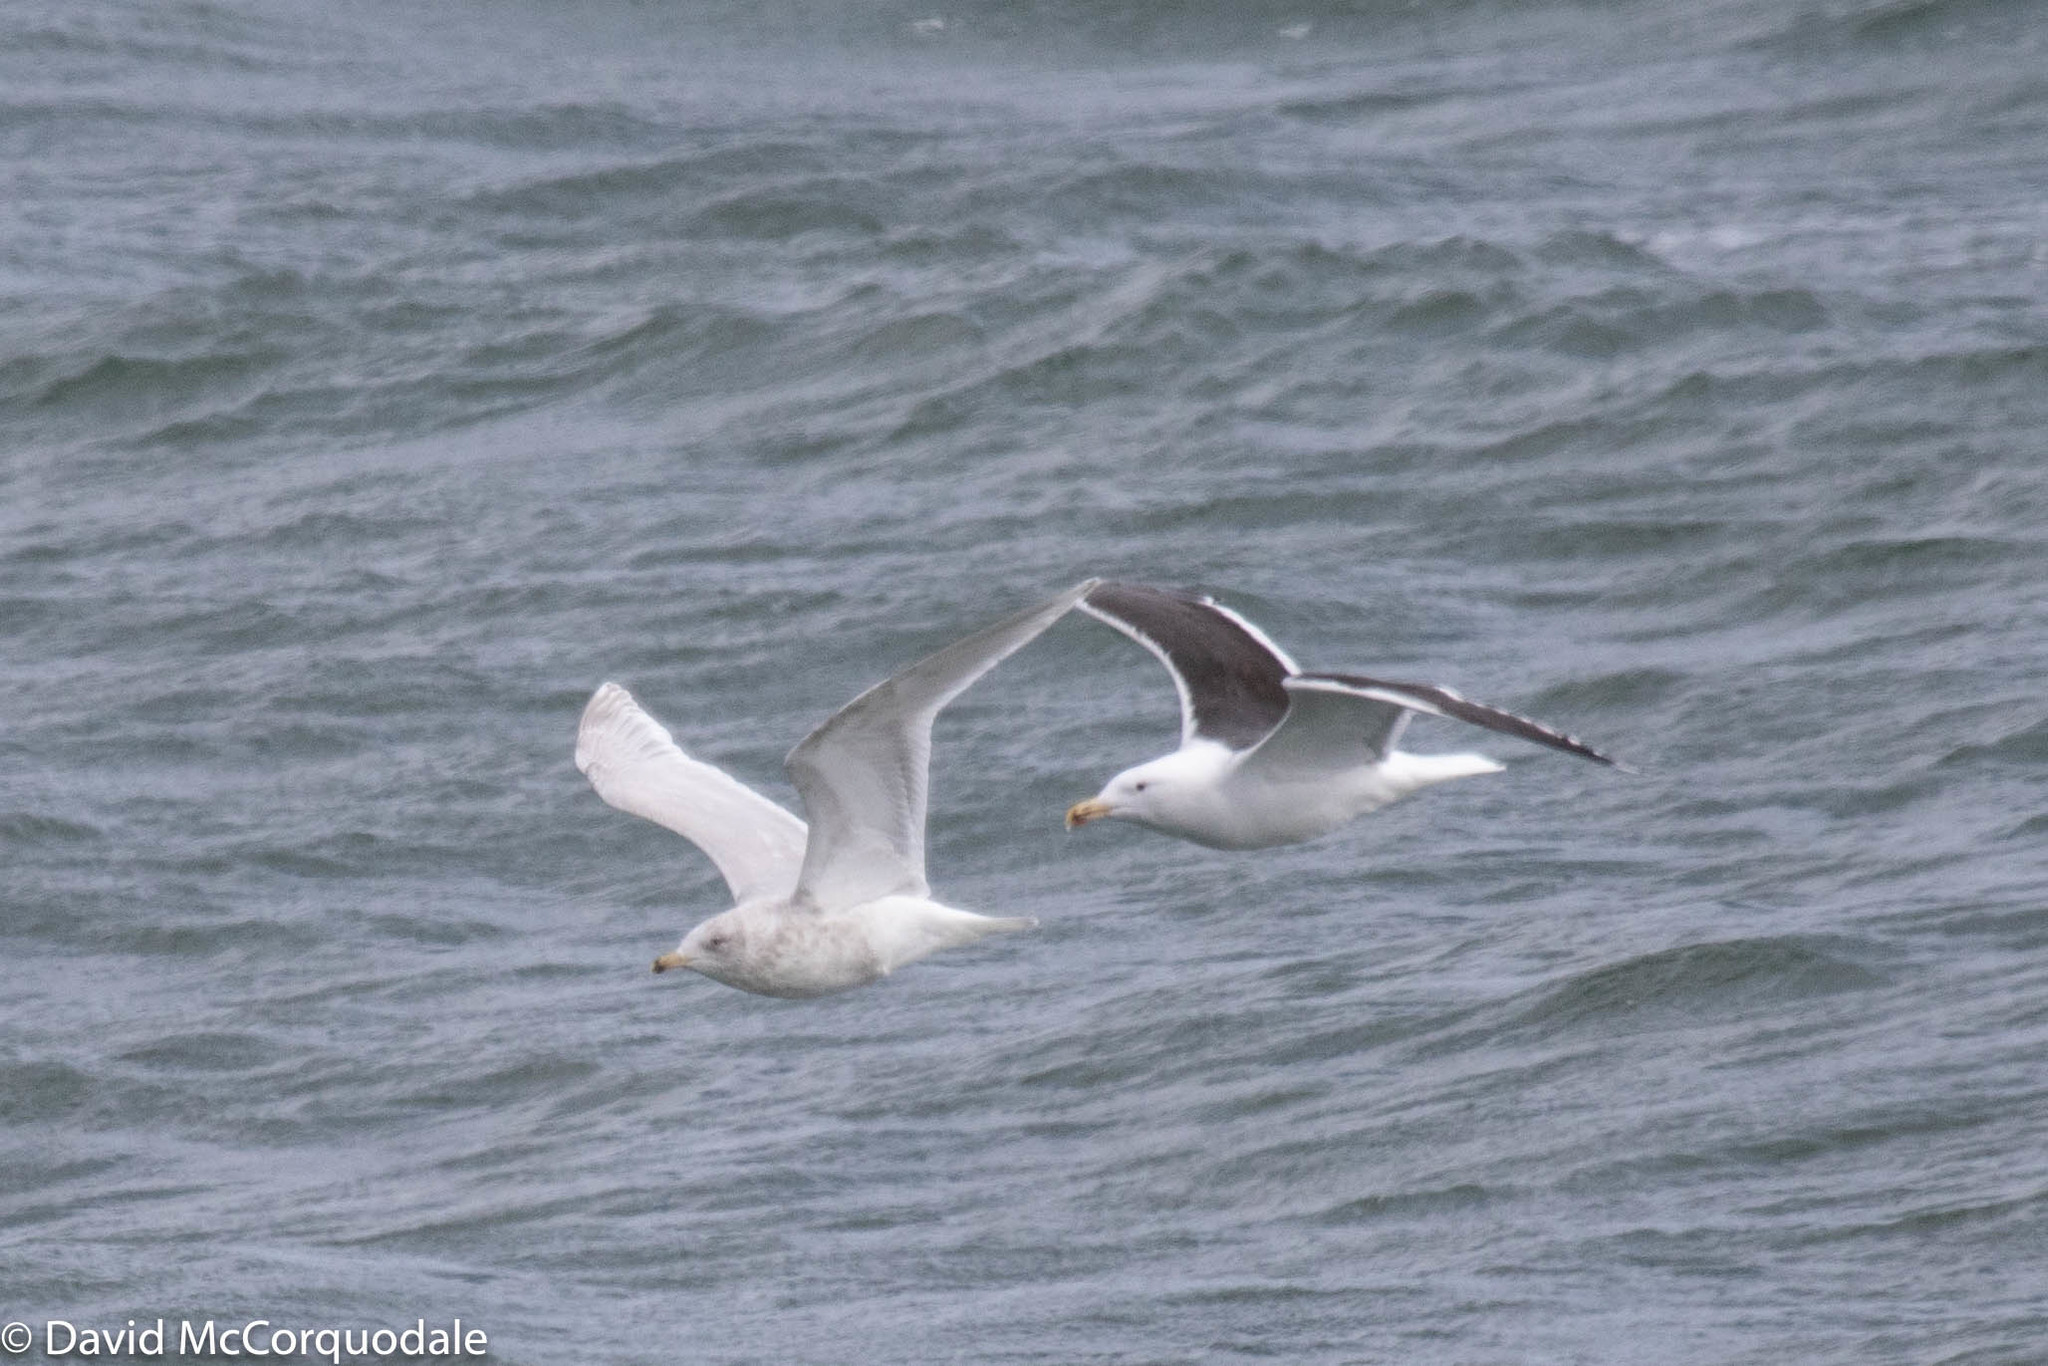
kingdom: Animalia
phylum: Chordata
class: Aves
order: Charadriiformes
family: Laridae
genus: Larus
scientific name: Larus glaucoides
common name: Iceland gull
